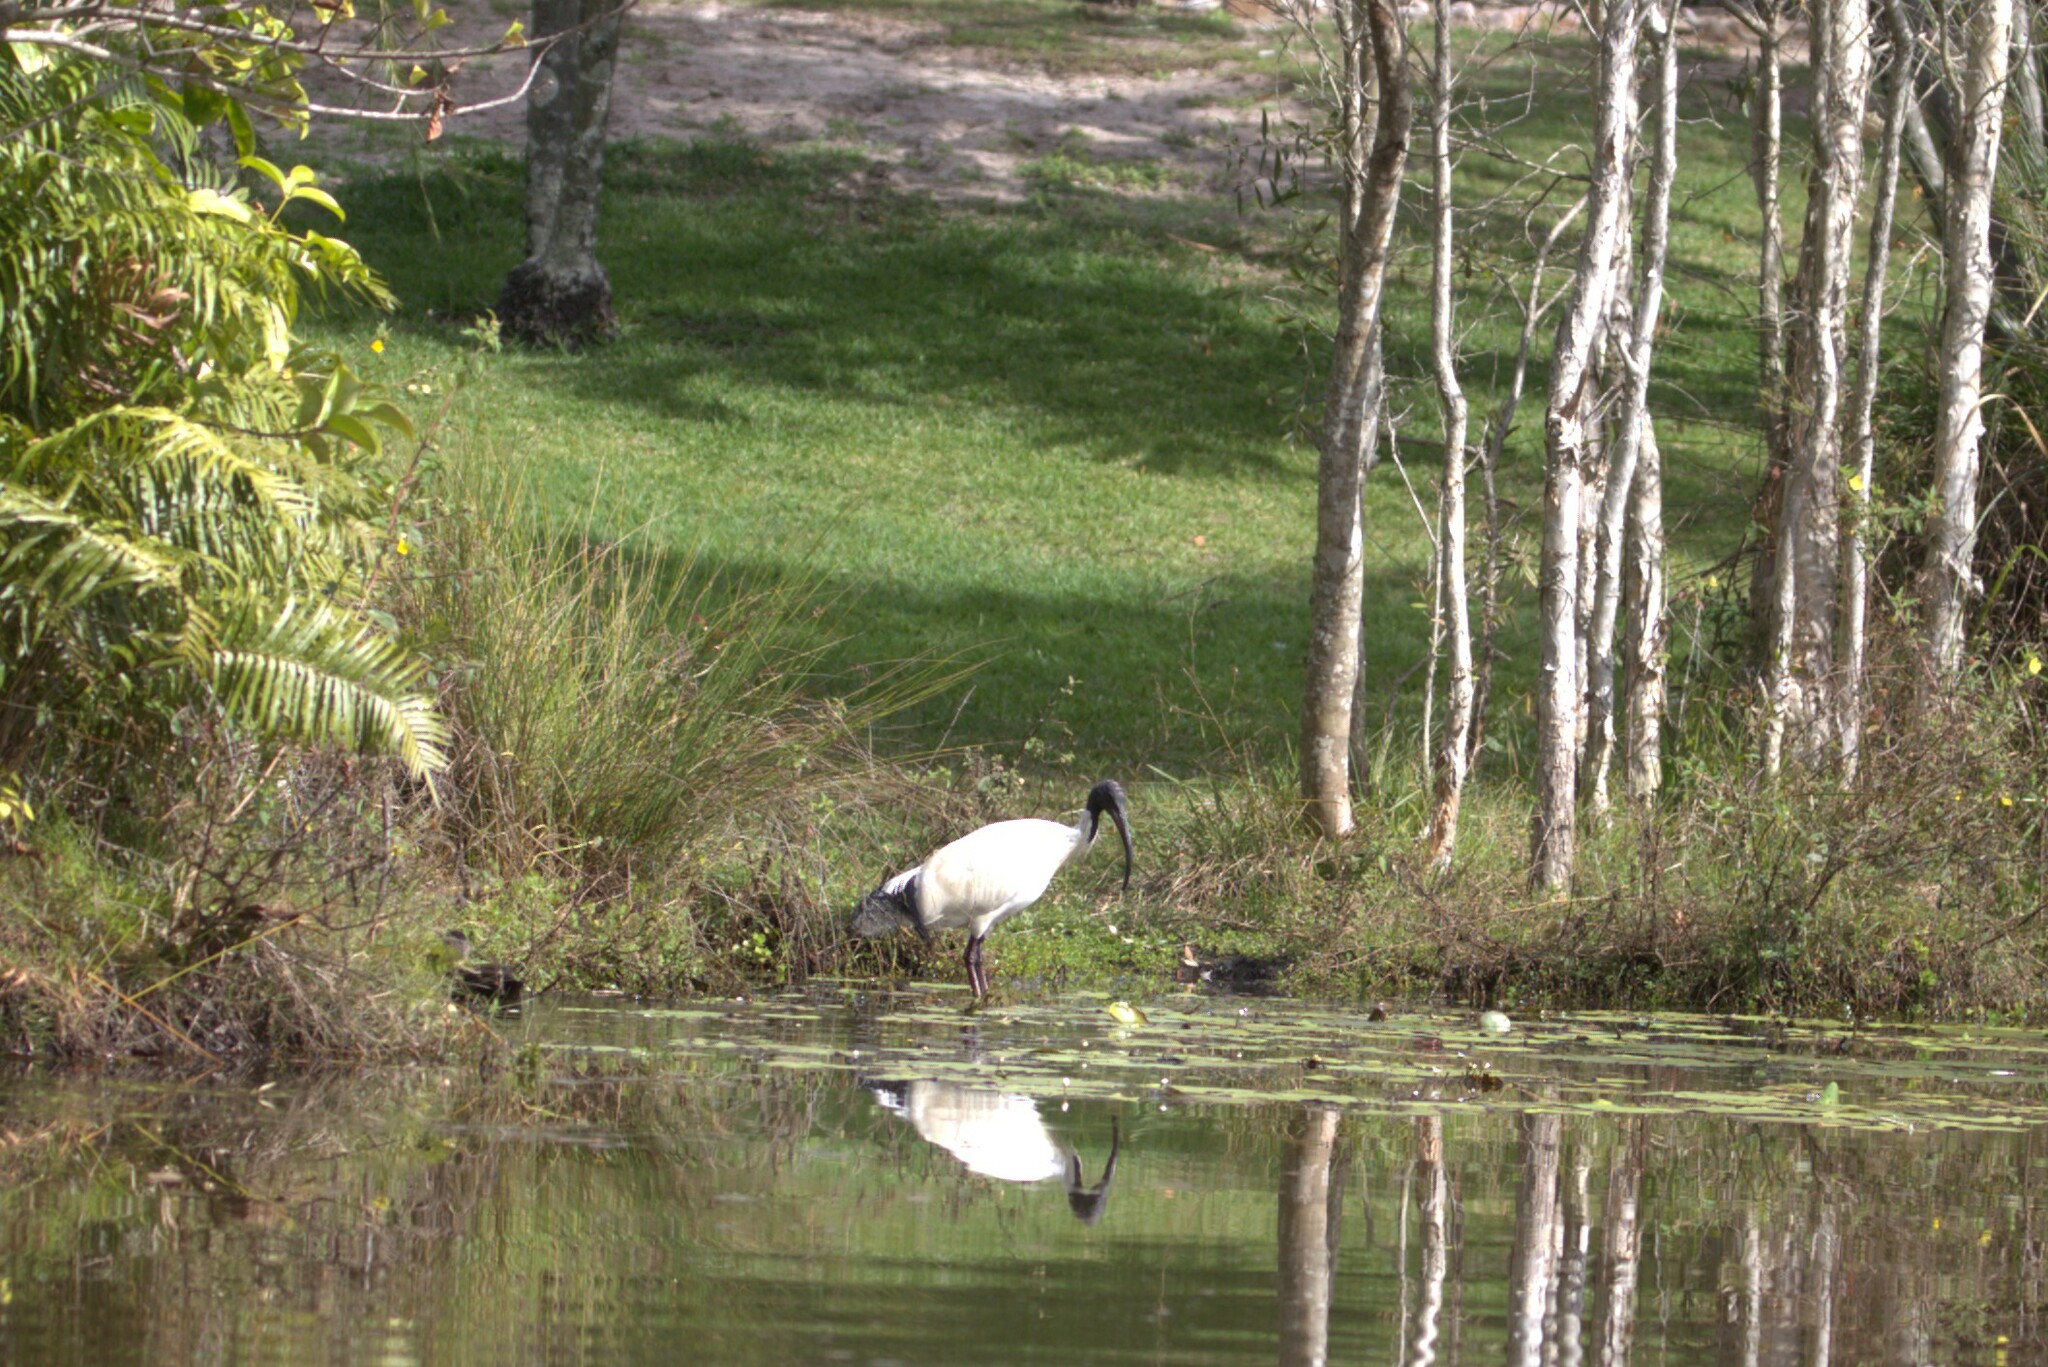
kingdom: Animalia
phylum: Chordata
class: Aves
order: Pelecaniformes
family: Threskiornithidae
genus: Threskiornis
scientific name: Threskiornis molucca
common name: Australian white ibis
